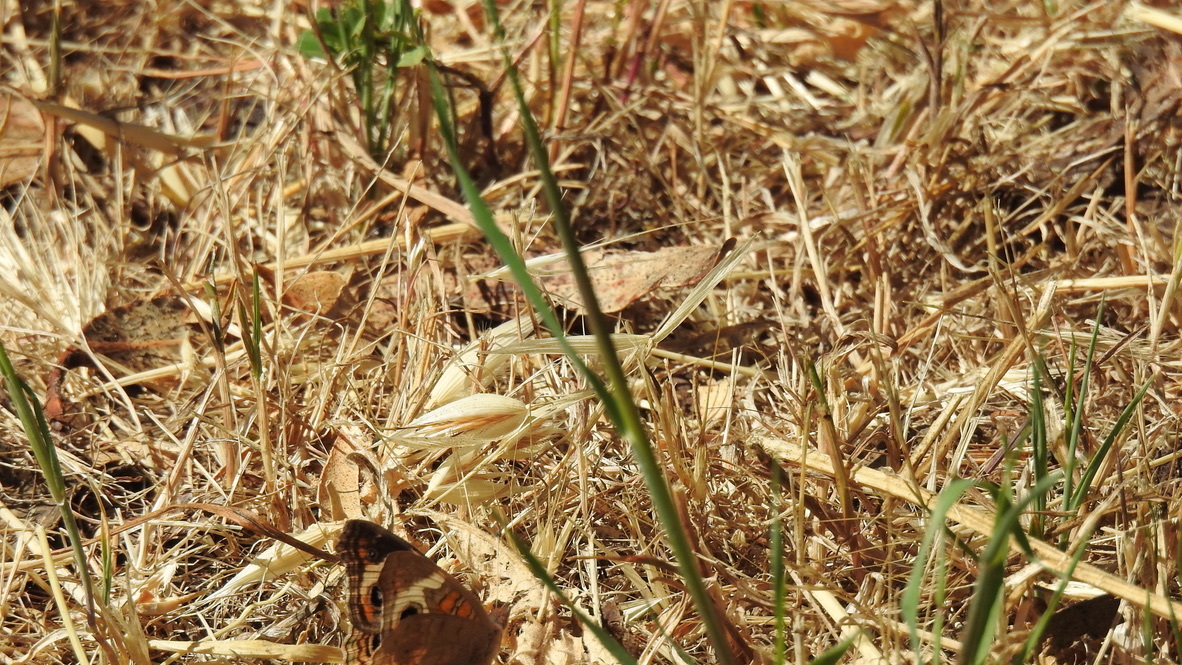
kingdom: Animalia
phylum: Arthropoda
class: Insecta
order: Lepidoptera
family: Nymphalidae
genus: Junonia
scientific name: Junonia grisea
